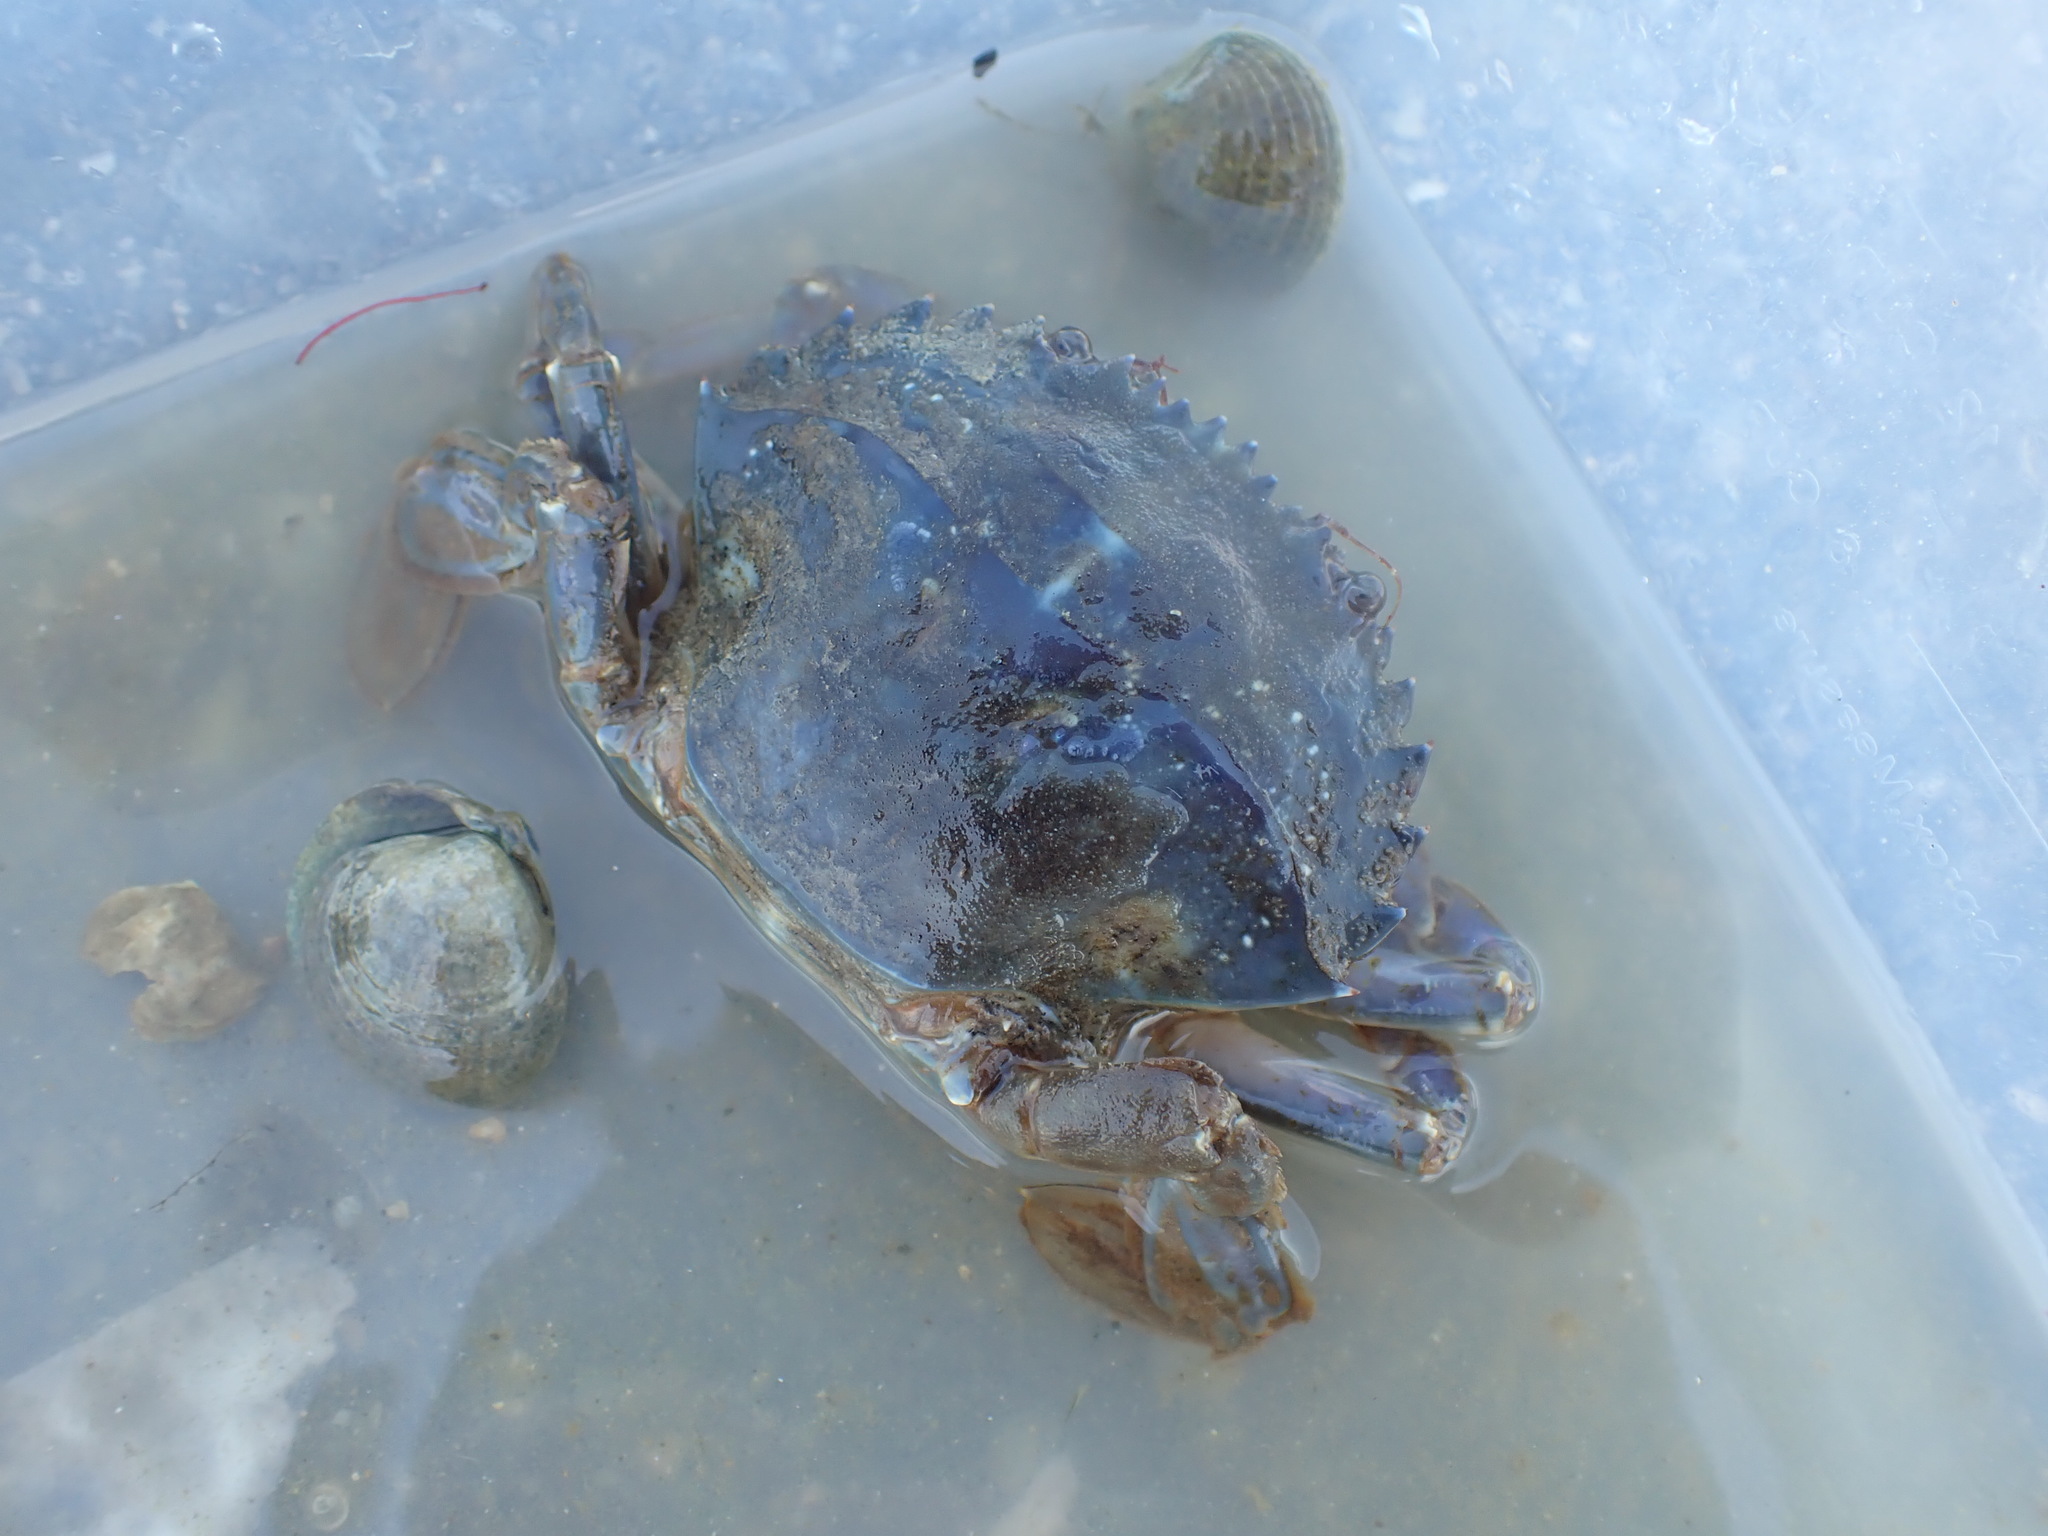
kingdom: Animalia
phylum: Arthropoda
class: Malacostraca
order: Decapoda
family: Portunidae
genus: Charybdis
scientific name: Charybdis japonica
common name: Asian paddle crab
